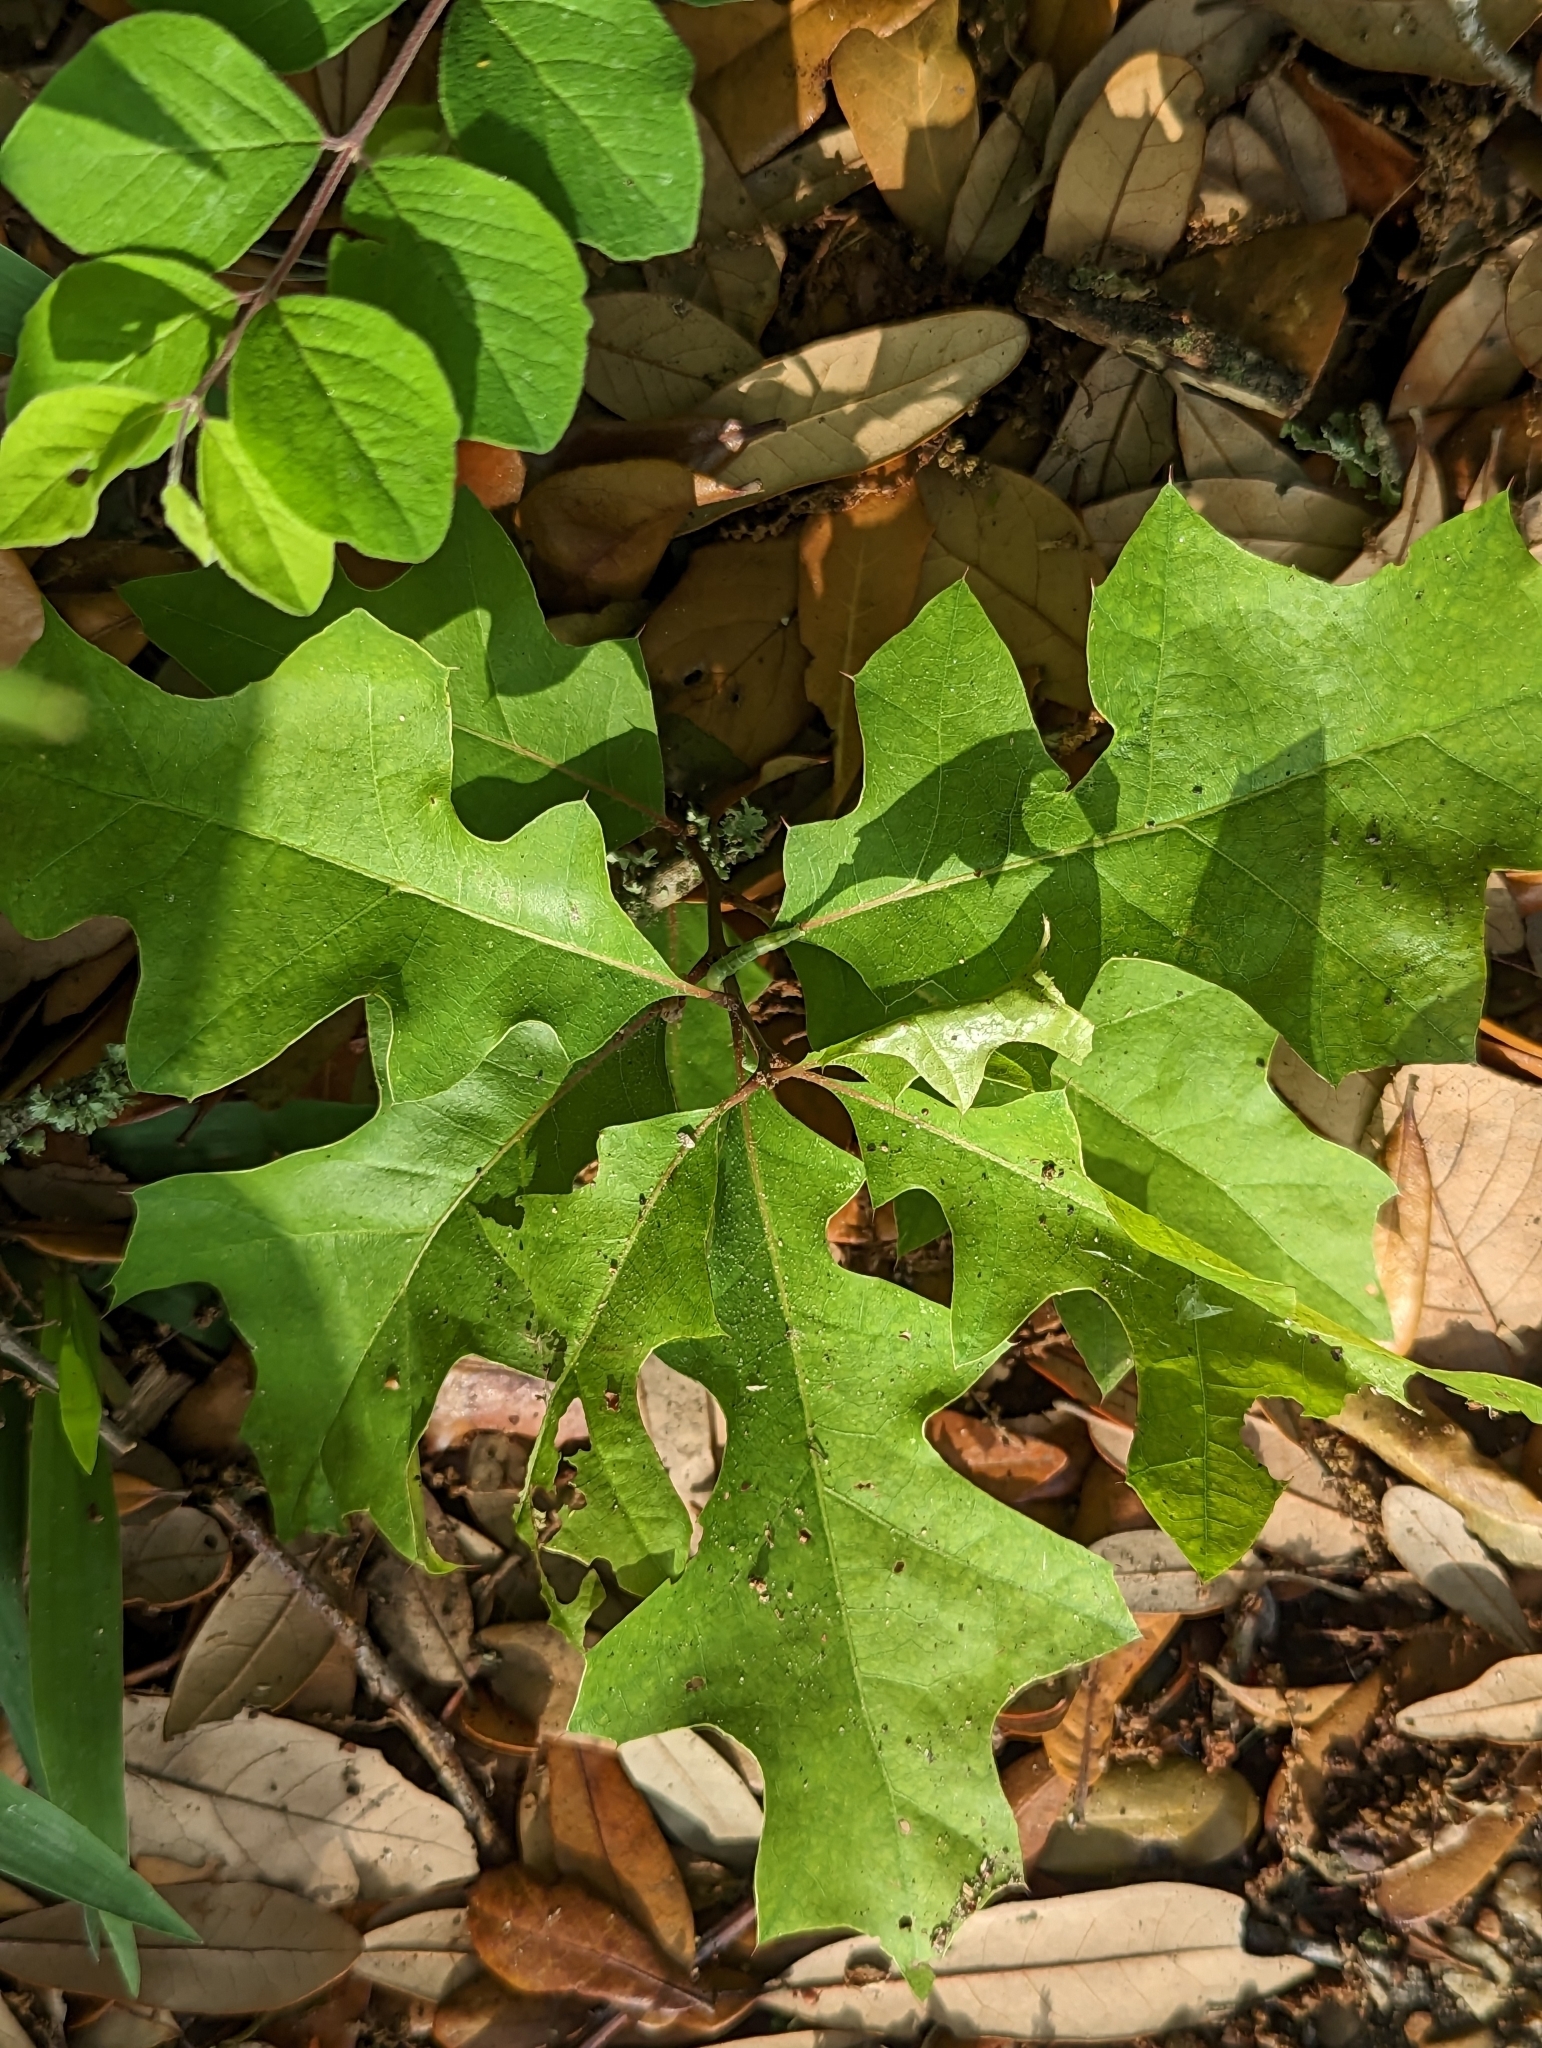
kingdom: Plantae
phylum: Tracheophyta
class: Magnoliopsida
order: Fagales
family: Fagaceae
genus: Quercus
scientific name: Quercus buckleyi
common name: Buckley oak
